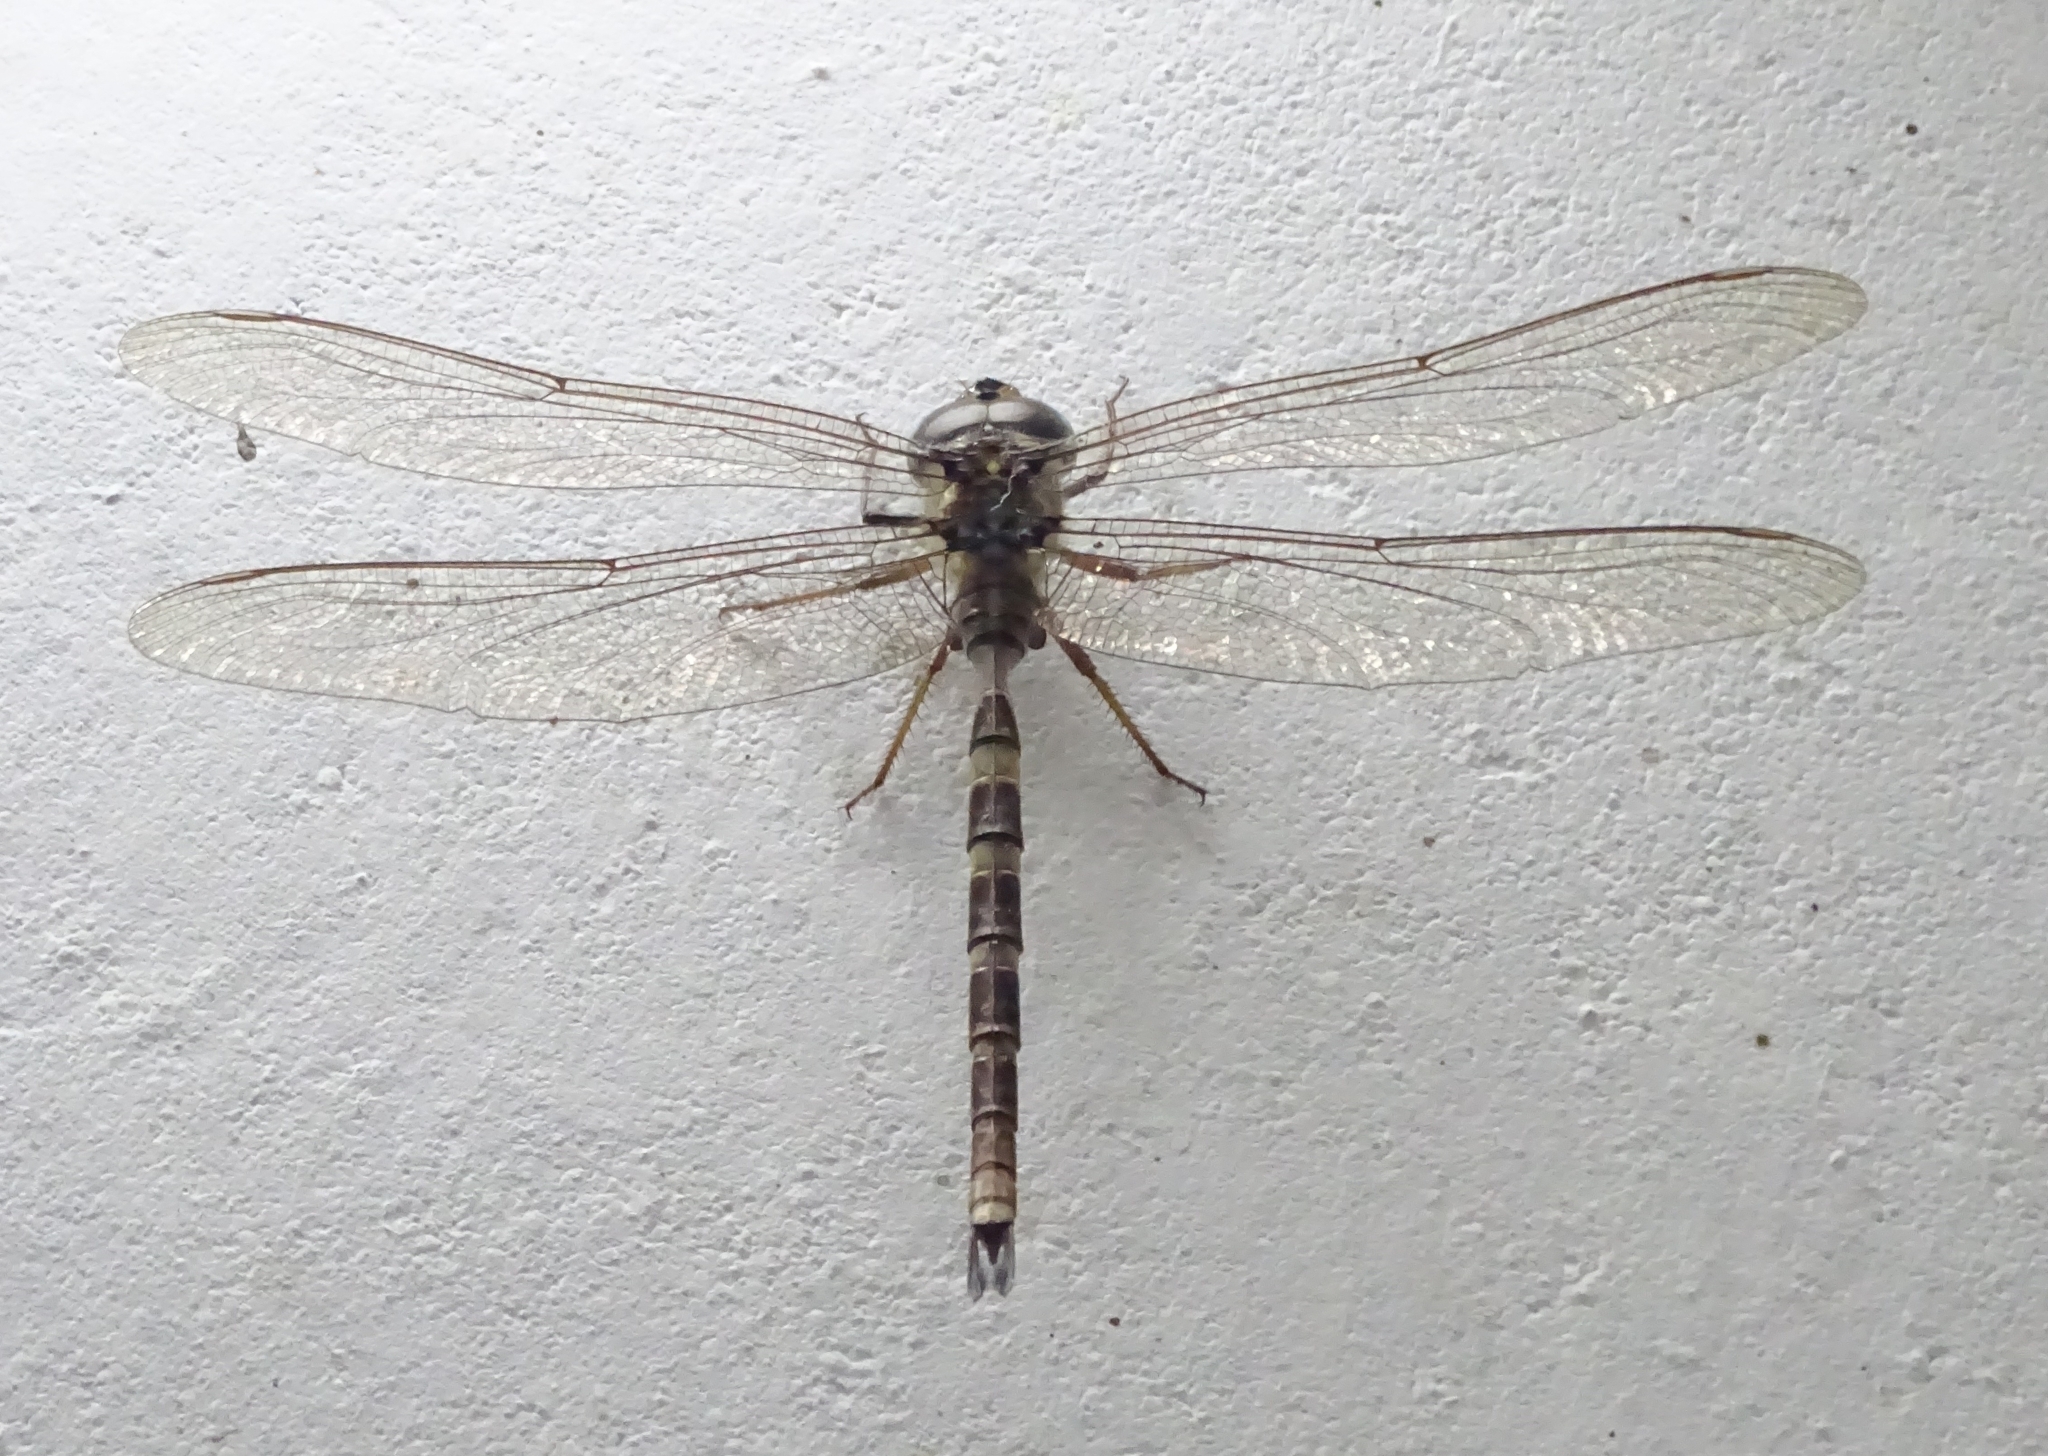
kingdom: Animalia
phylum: Arthropoda
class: Insecta
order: Odonata
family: Aeshnidae
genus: Gynacantha
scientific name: Gynacantha dravida
